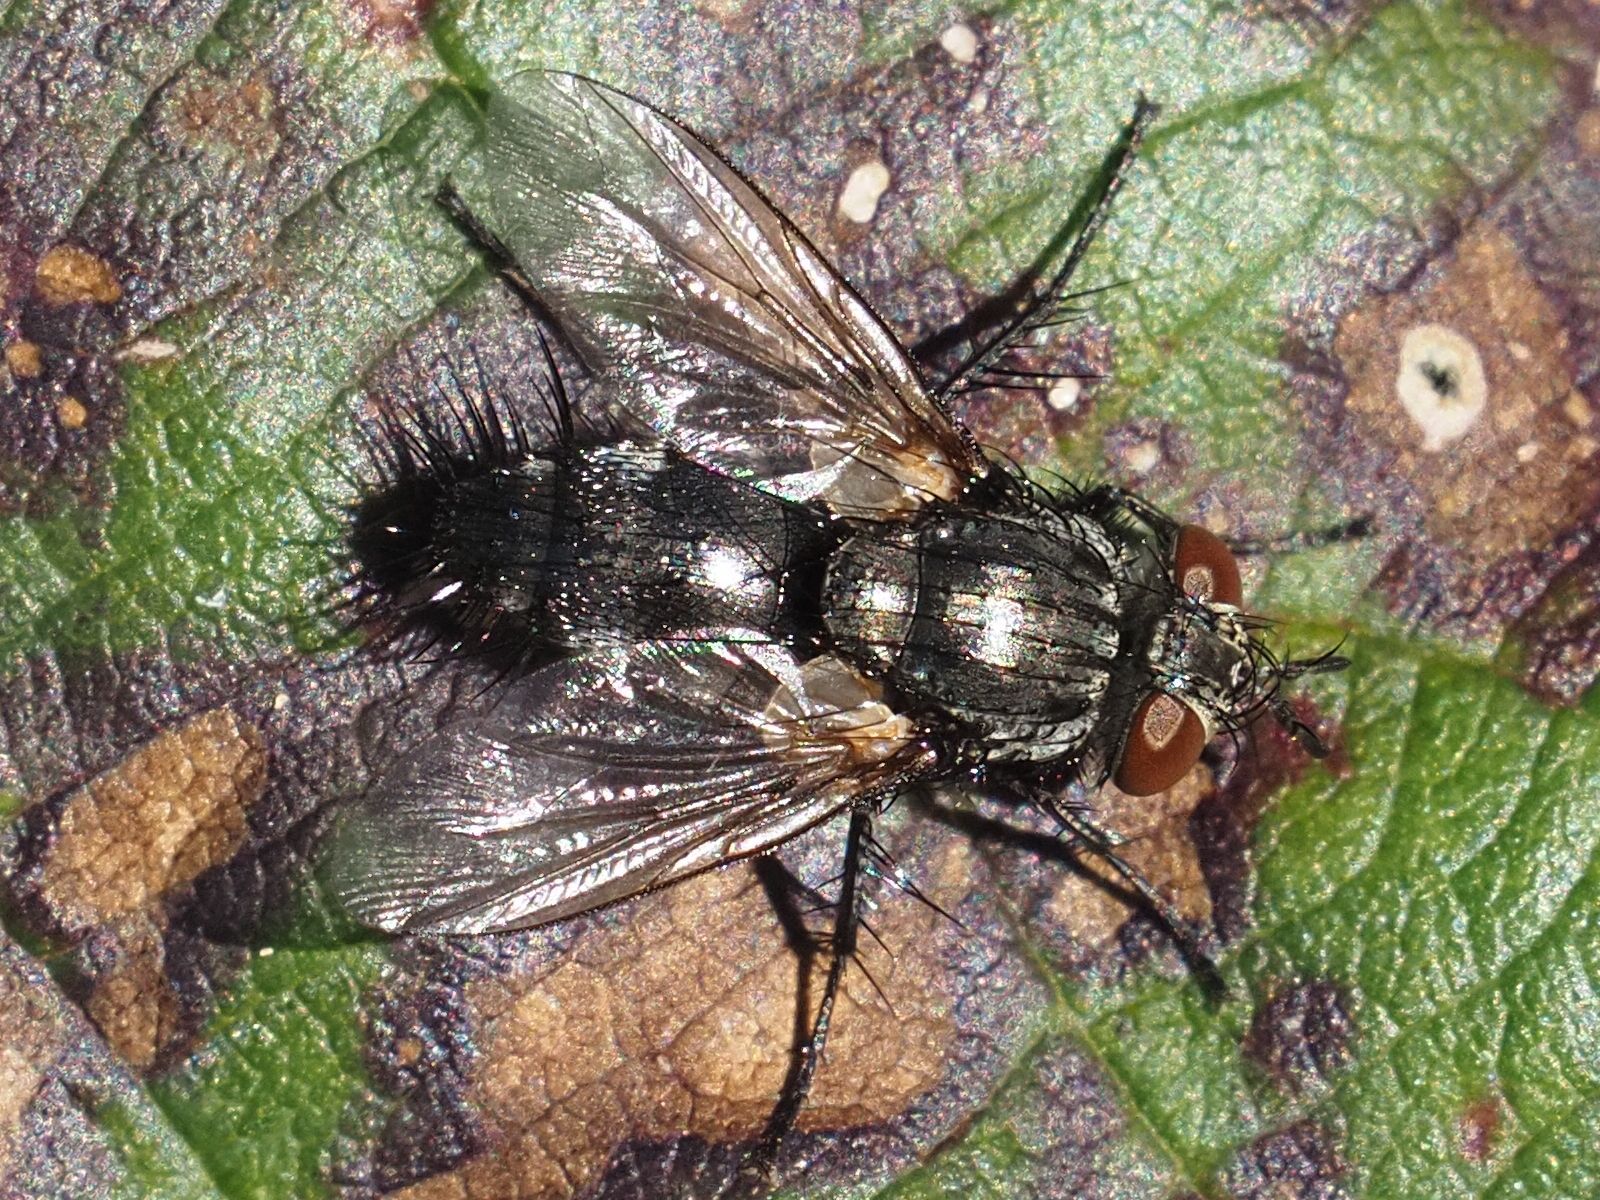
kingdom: Animalia
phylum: Arthropoda
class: Insecta
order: Diptera
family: Tachinidae
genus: Voria
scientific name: Voria ruralis
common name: Parasitic fly
